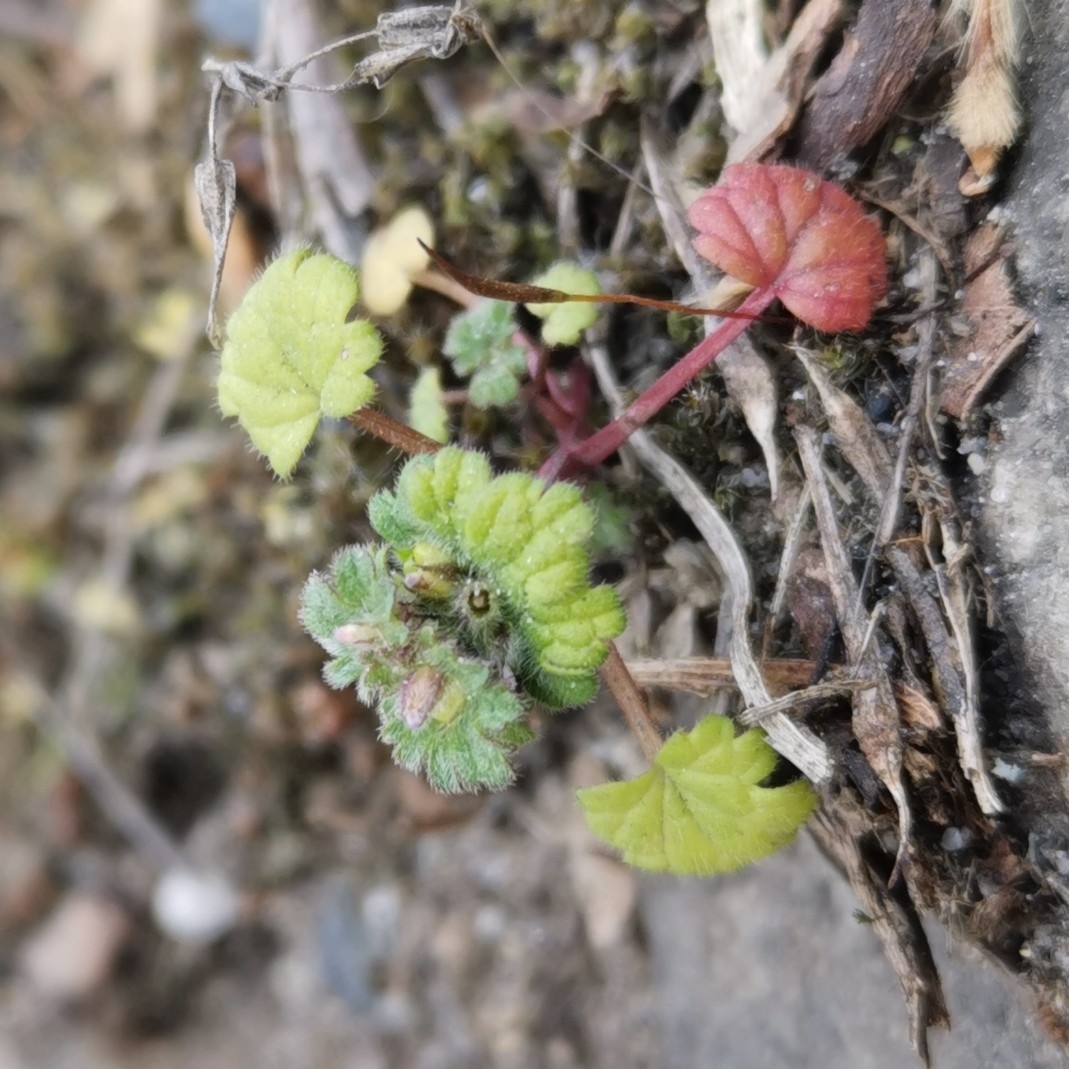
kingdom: Plantae
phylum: Tracheophyta
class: Magnoliopsida
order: Lamiales
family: Lamiaceae
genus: Lamium
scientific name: Lamium amplexicaule
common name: Henbit dead-nettle
